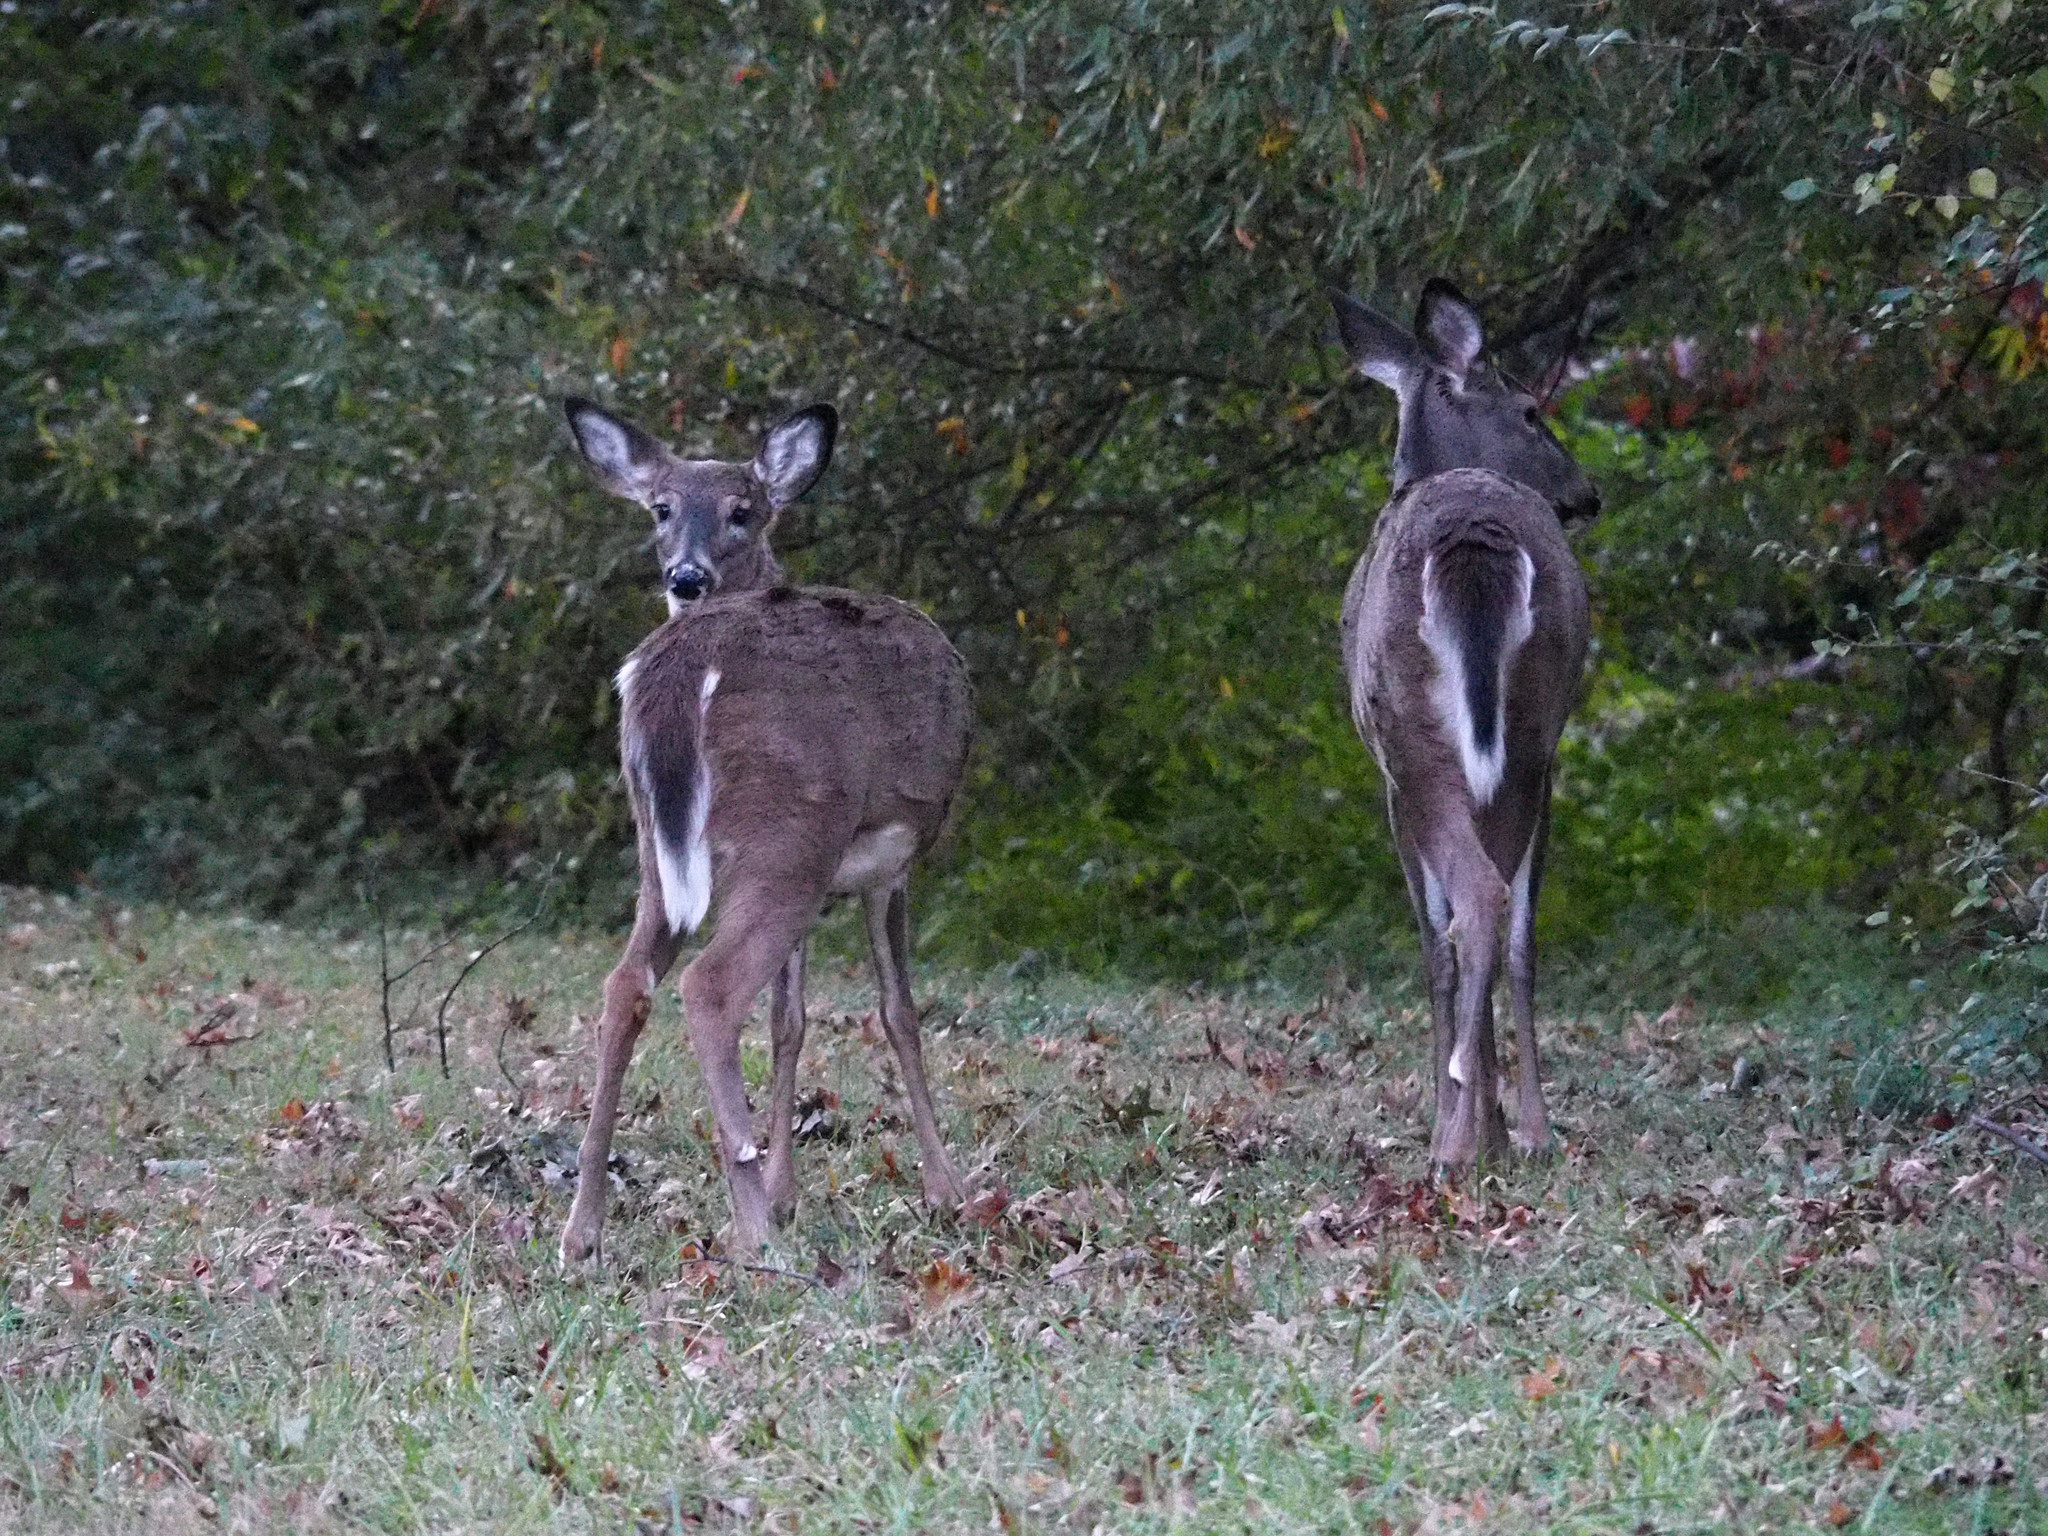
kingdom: Animalia
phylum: Chordata
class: Mammalia
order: Artiodactyla
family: Cervidae
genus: Odocoileus
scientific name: Odocoileus virginianus
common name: White-tailed deer
